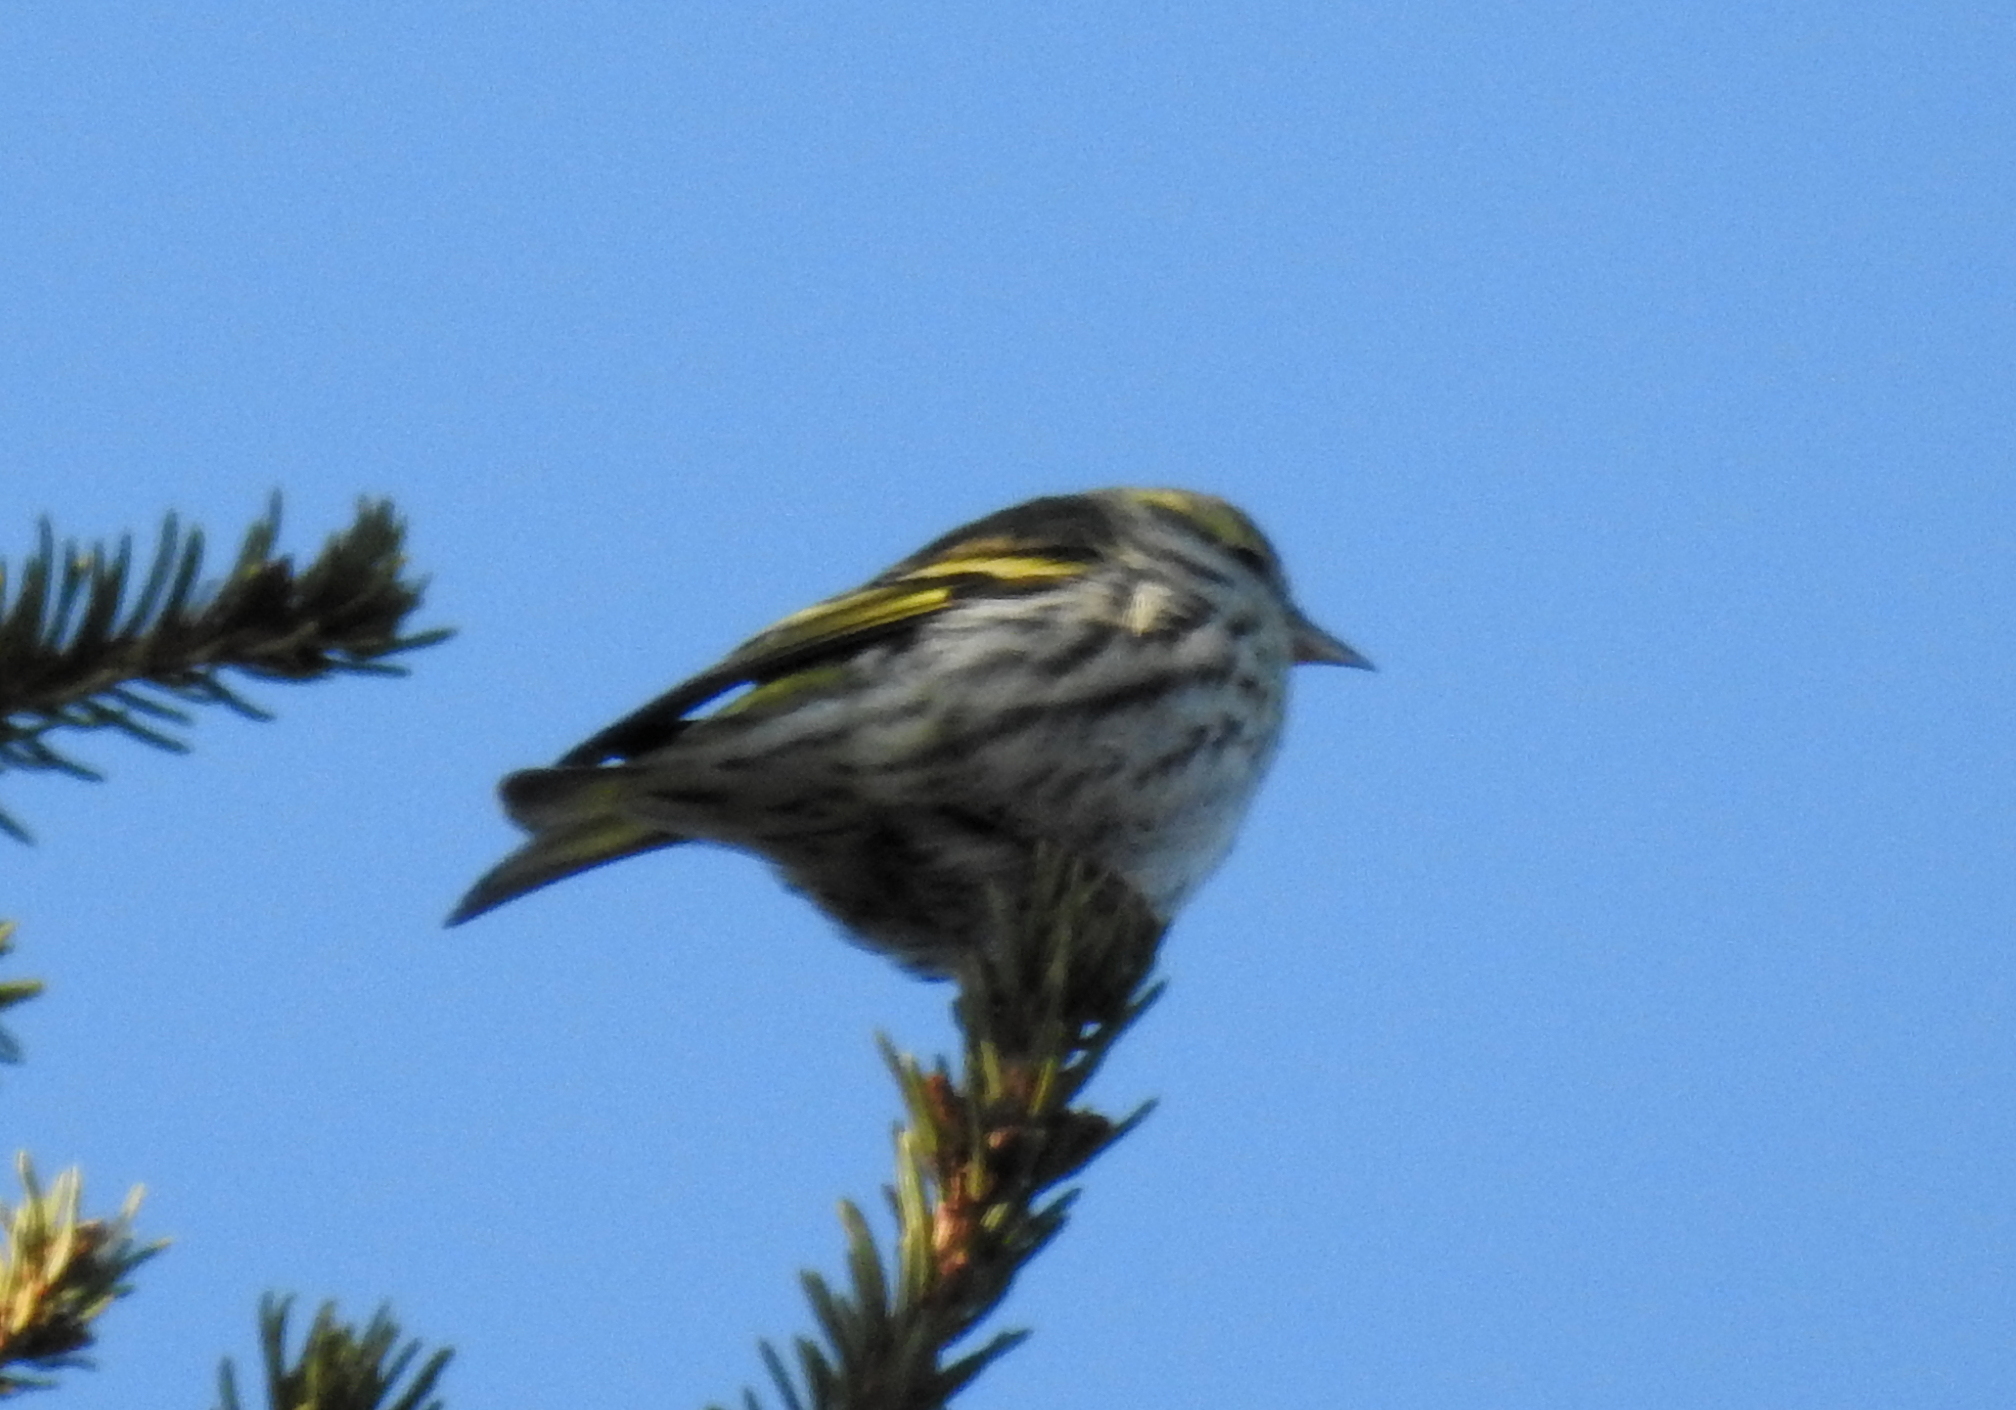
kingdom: Animalia
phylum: Chordata
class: Aves
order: Passeriformes
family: Fringillidae
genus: Spinus
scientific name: Spinus spinus
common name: Eurasian siskin
